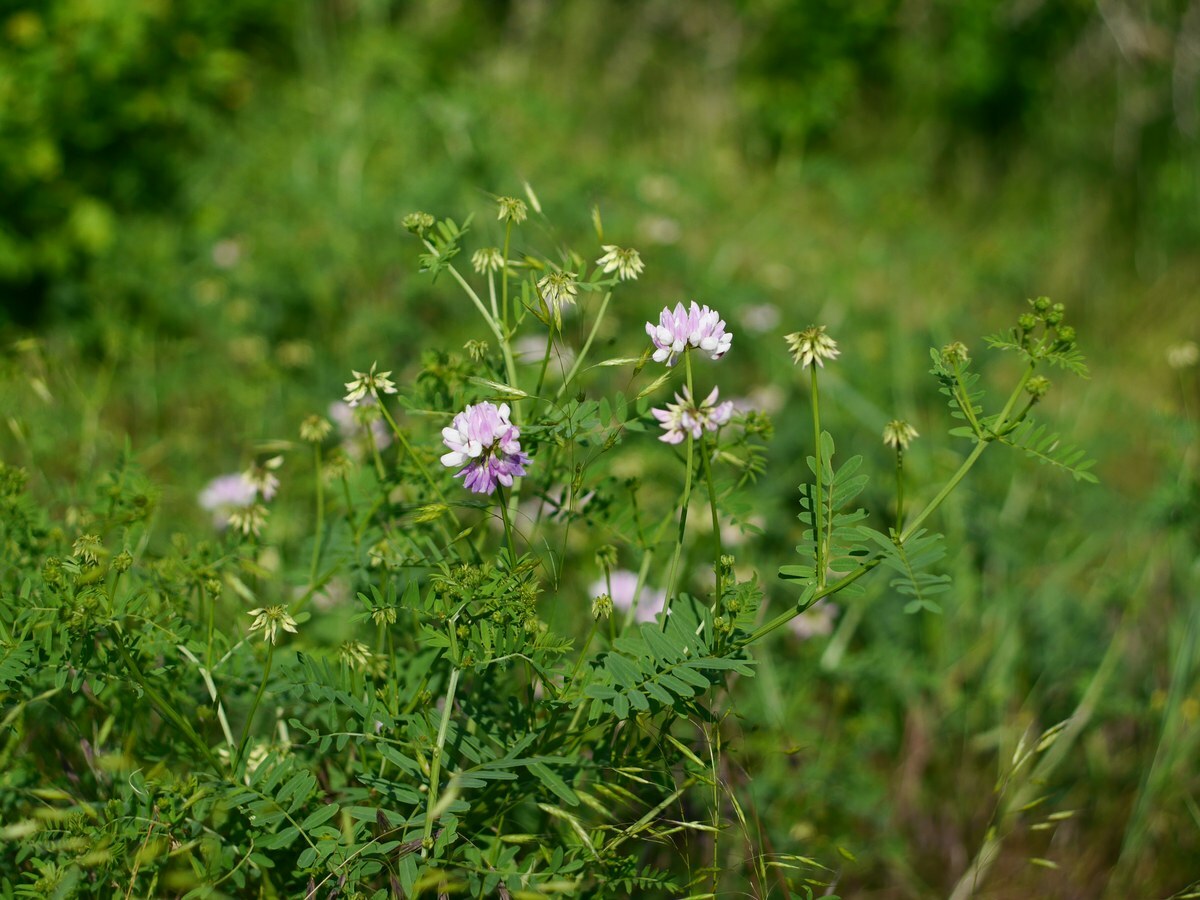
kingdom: Plantae
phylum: Tracheophyta
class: Magnoliopsida
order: Fabales
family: Fabaceae
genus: Coronilla
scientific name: Coronilla varia
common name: Crownvetch
